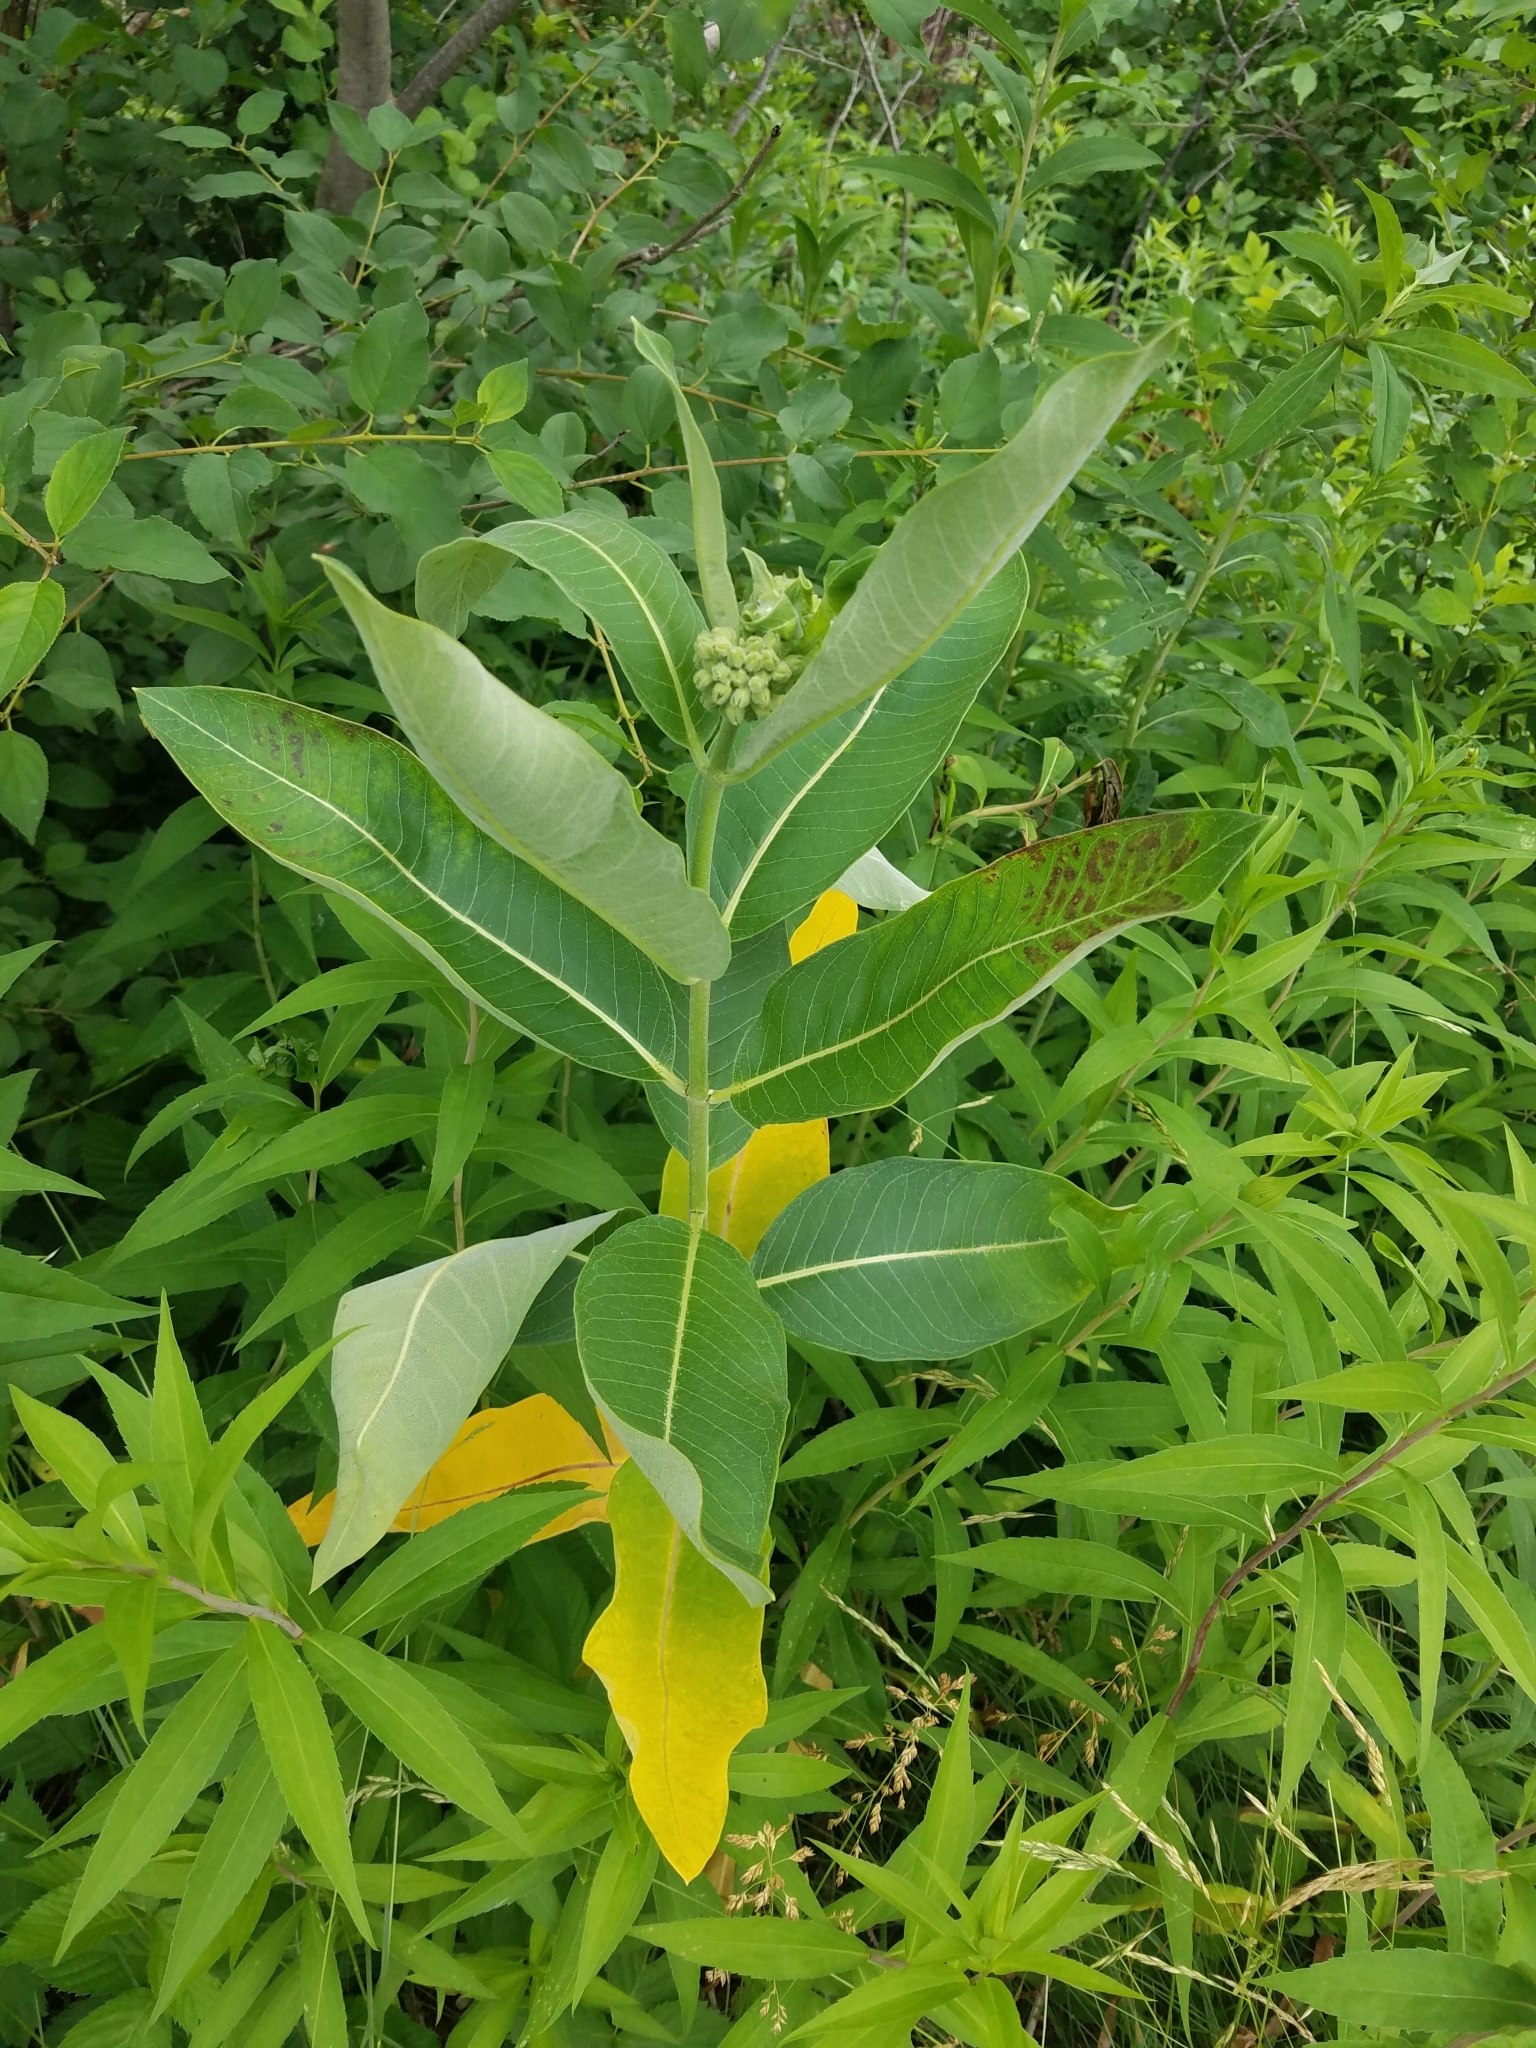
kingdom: Plantae
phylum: Tracheophyta
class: Magnoliopsida
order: Gentianales
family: Apocynaceae
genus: Asclepias
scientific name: Asclepias syriaca
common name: Common milkweed
